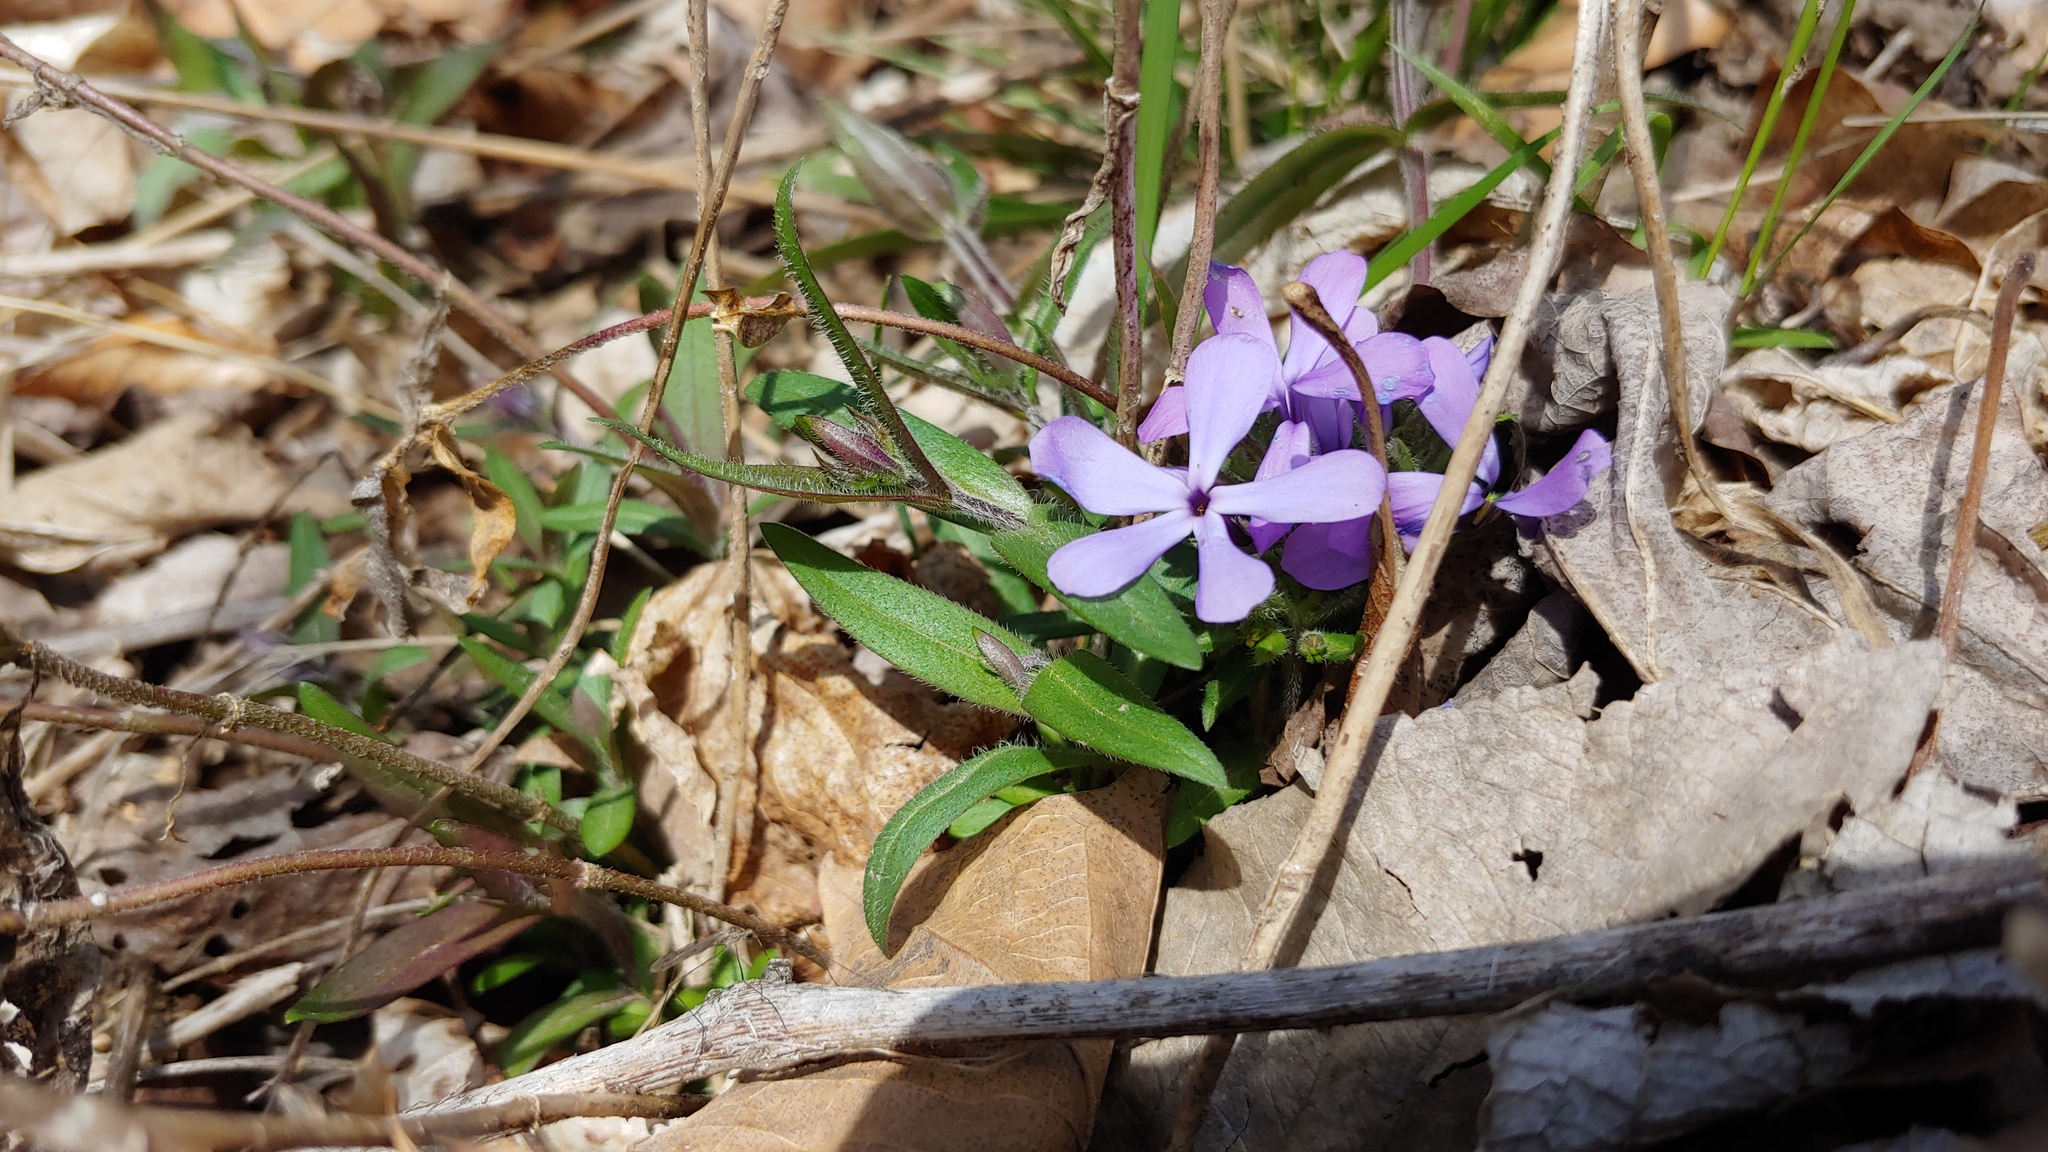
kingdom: Plantae
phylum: Tracheophyta
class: Magnoliopsida
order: Ericales
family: Polemoniaceae
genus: Phlox
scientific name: Phlox divaricata
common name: Blue phlox
